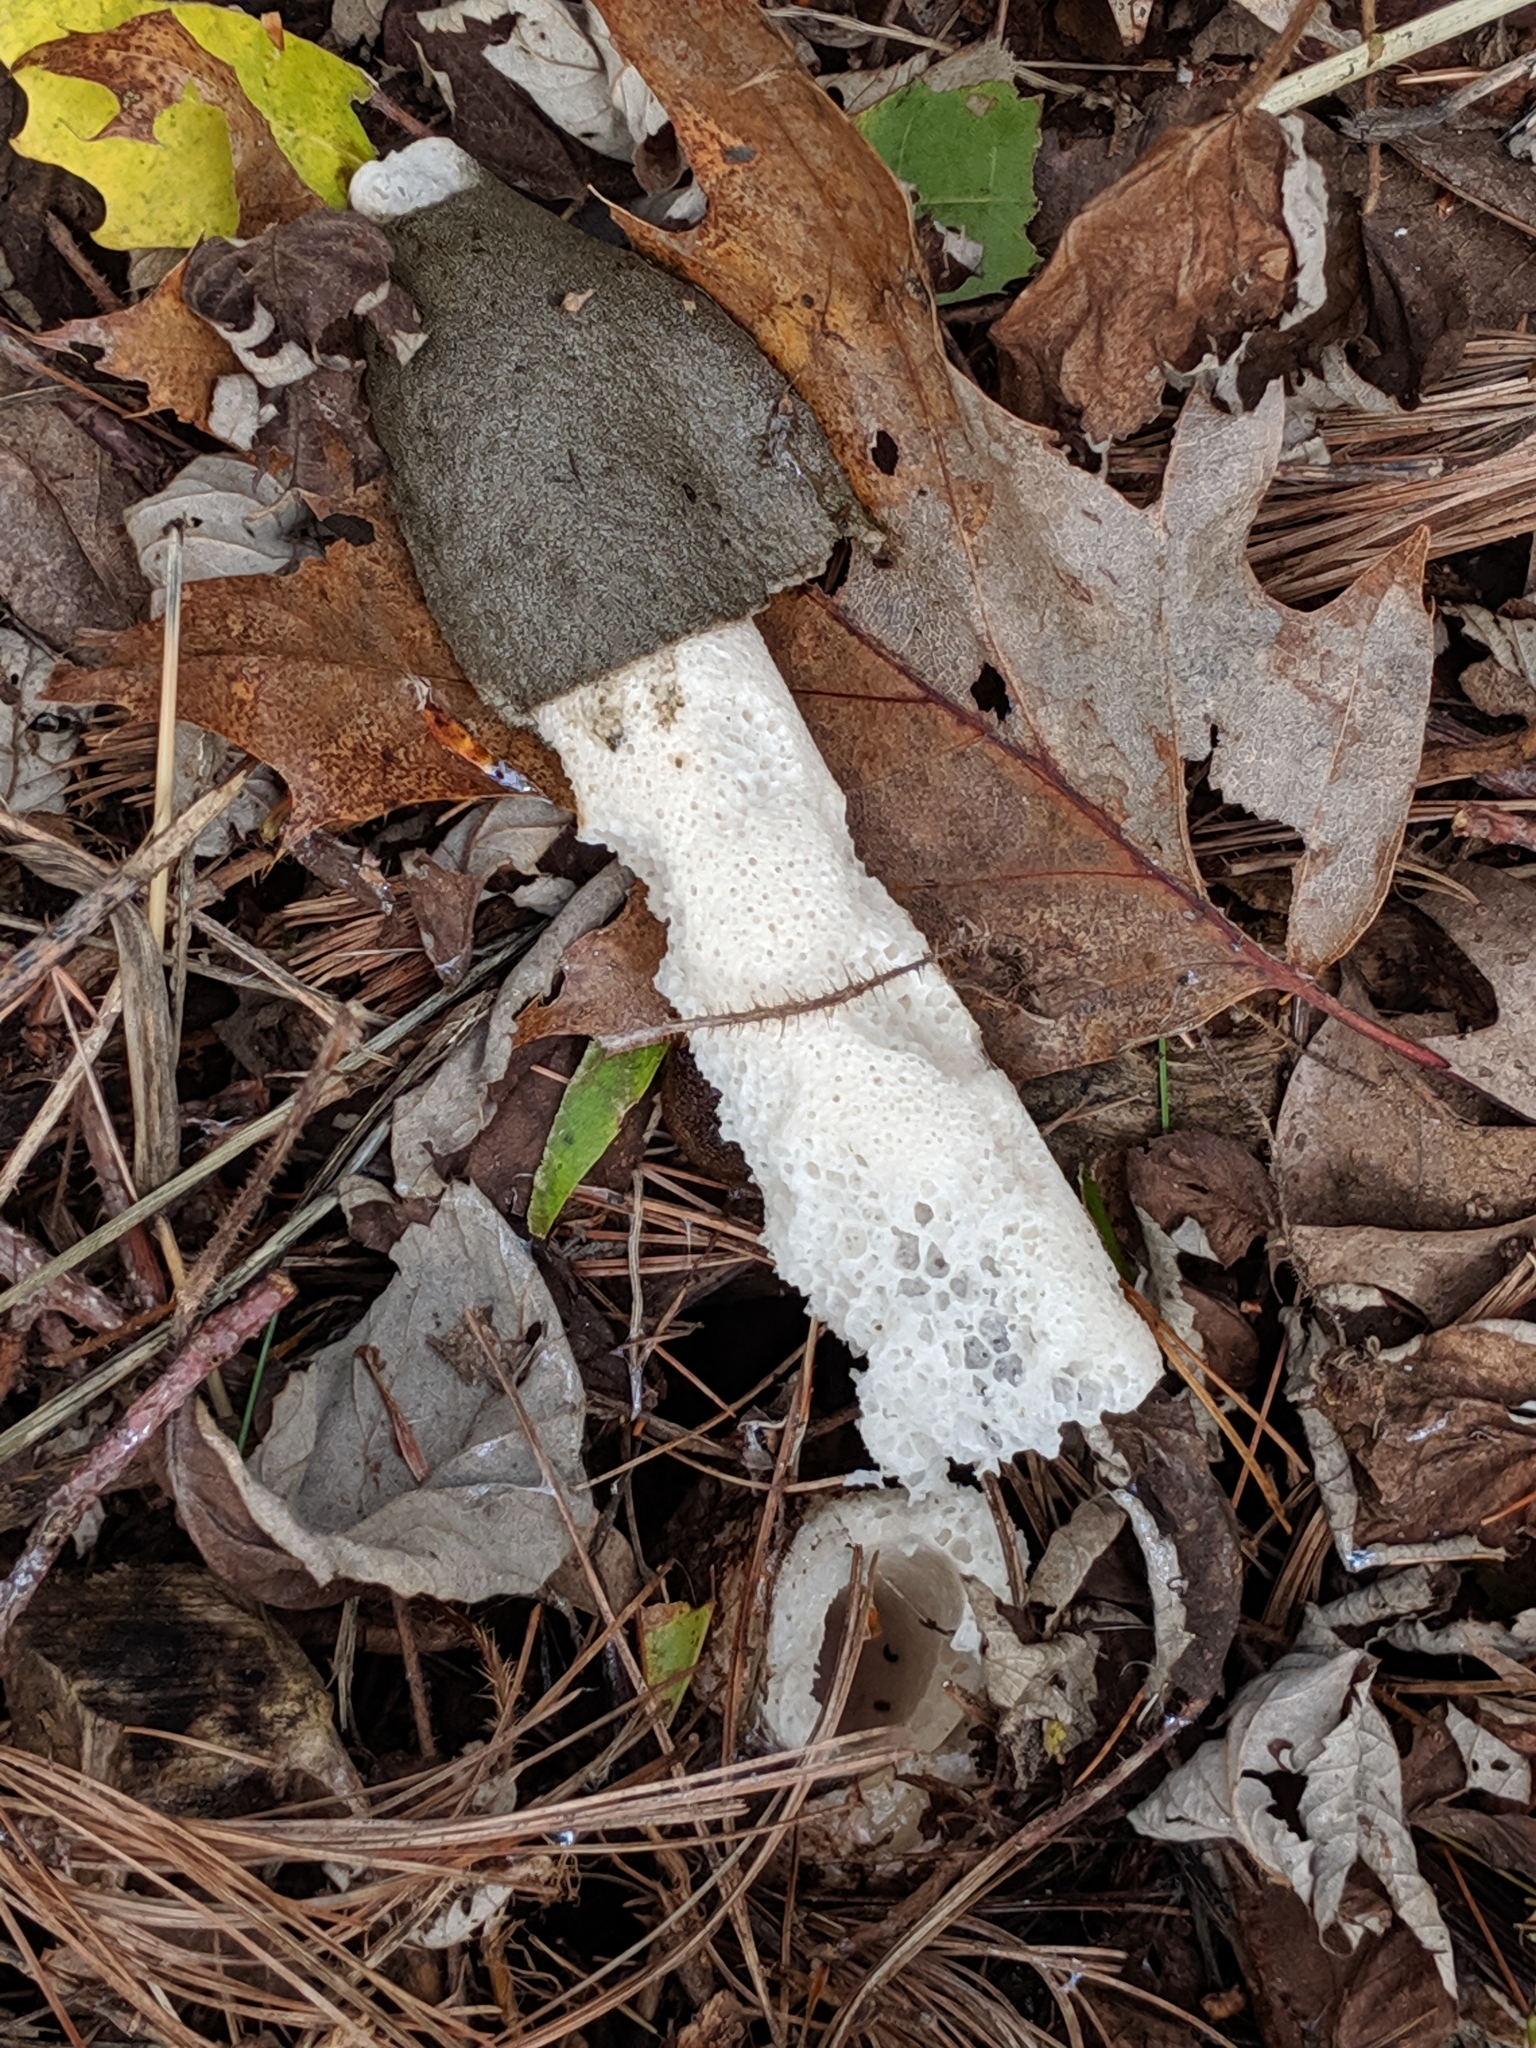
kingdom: Fungi
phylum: Basidiomycota
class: Agaricomycetes
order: Phallales
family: Phallaceae
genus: Phallus
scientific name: Phallus ravenelii
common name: Ravenel's stinkhorn
